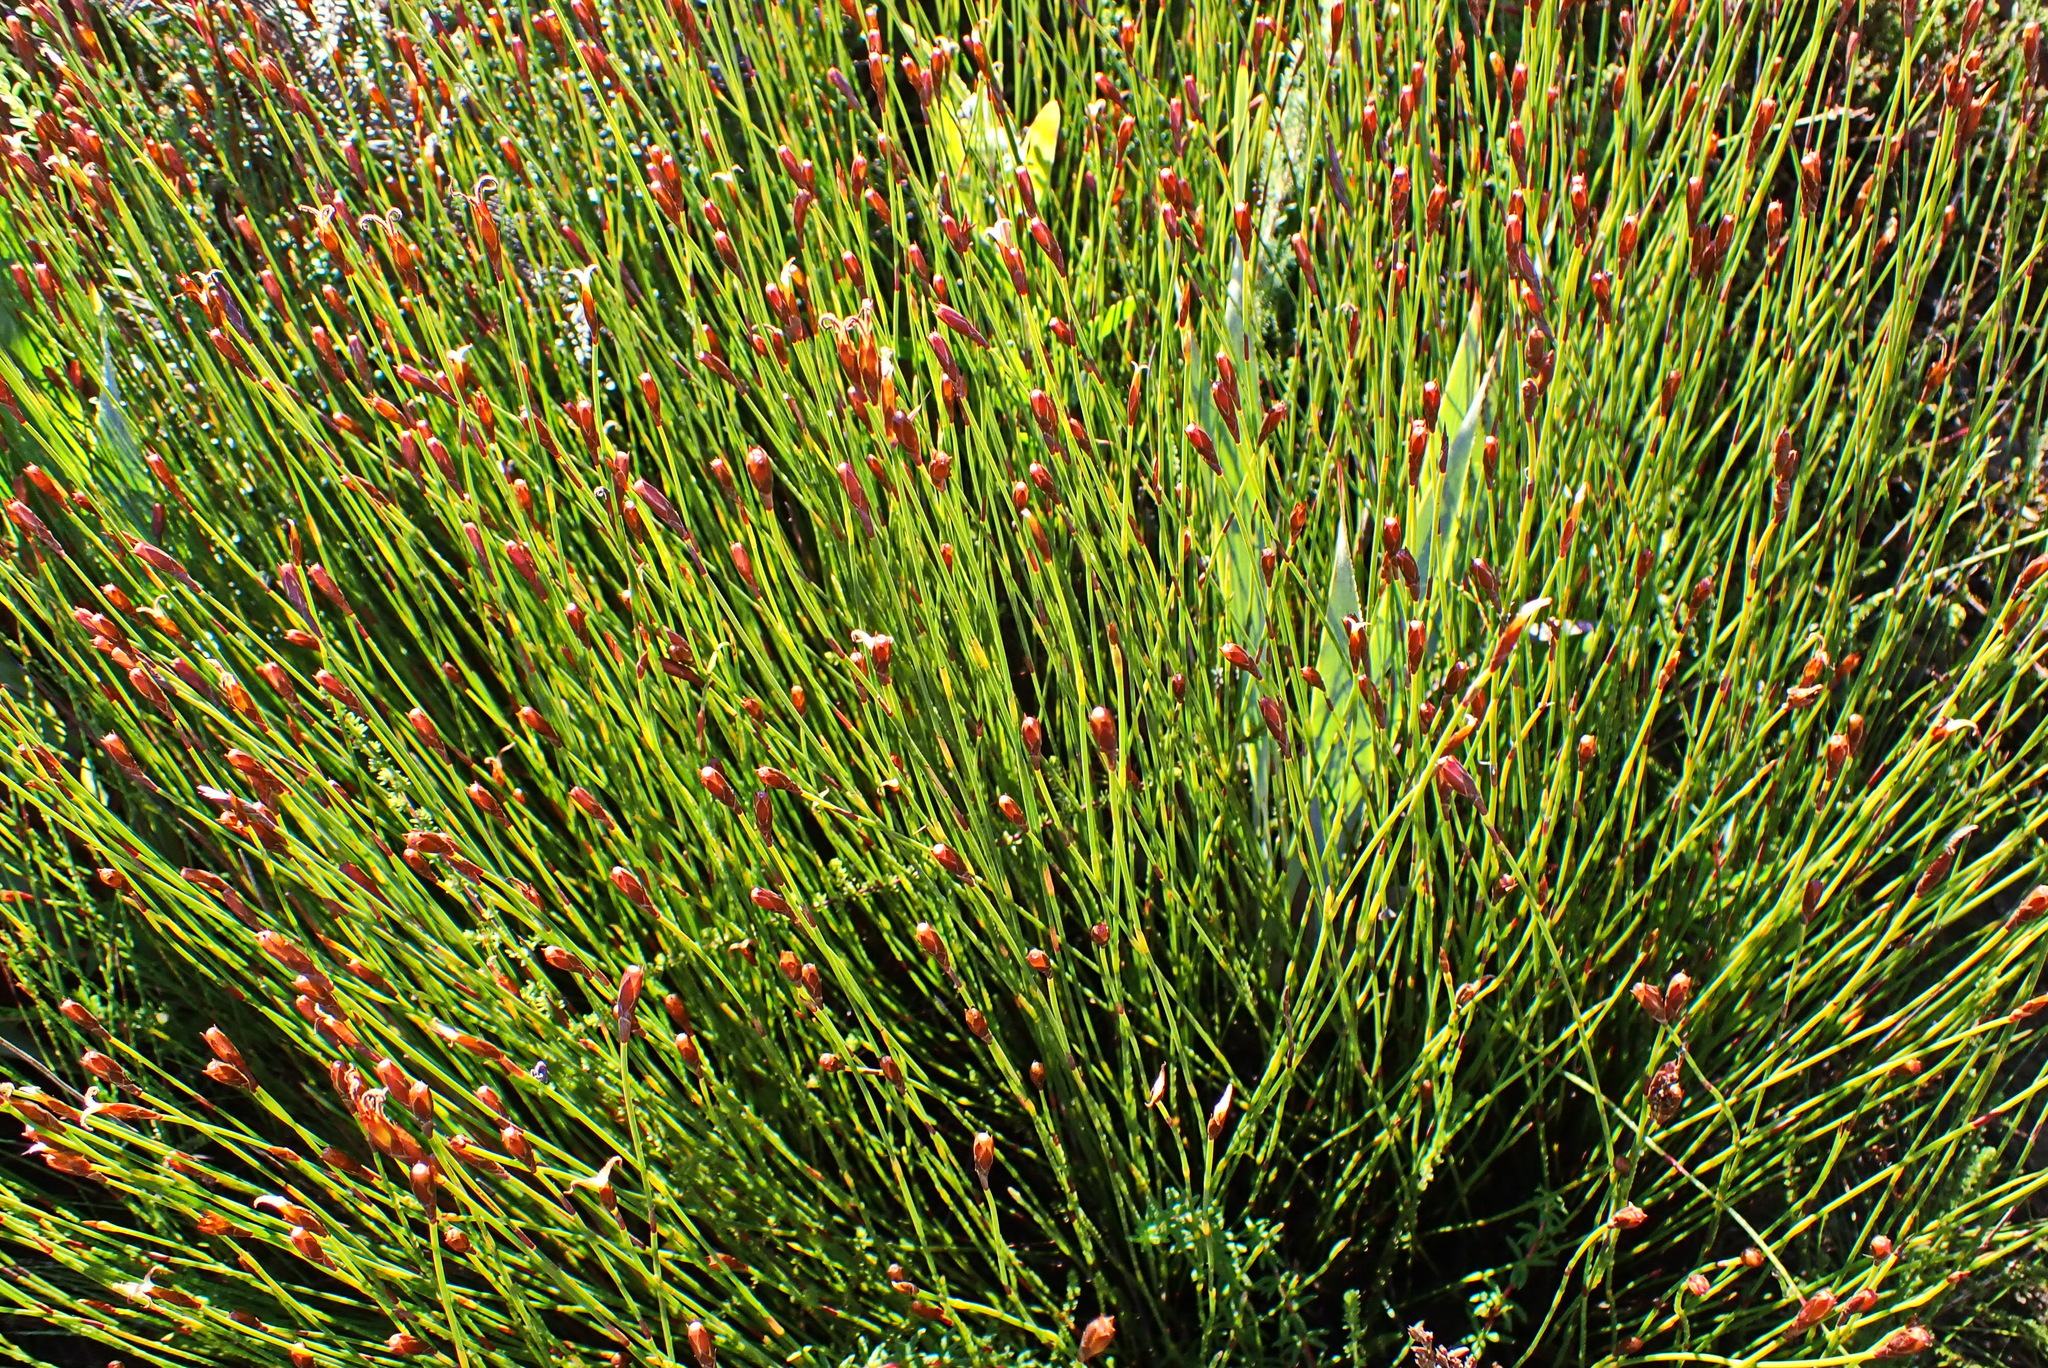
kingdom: Plantae
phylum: Tracheophyta
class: Liliopsida
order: Poales
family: Restionaceae
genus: Hypodiscus
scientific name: Hypodiscus striatus
